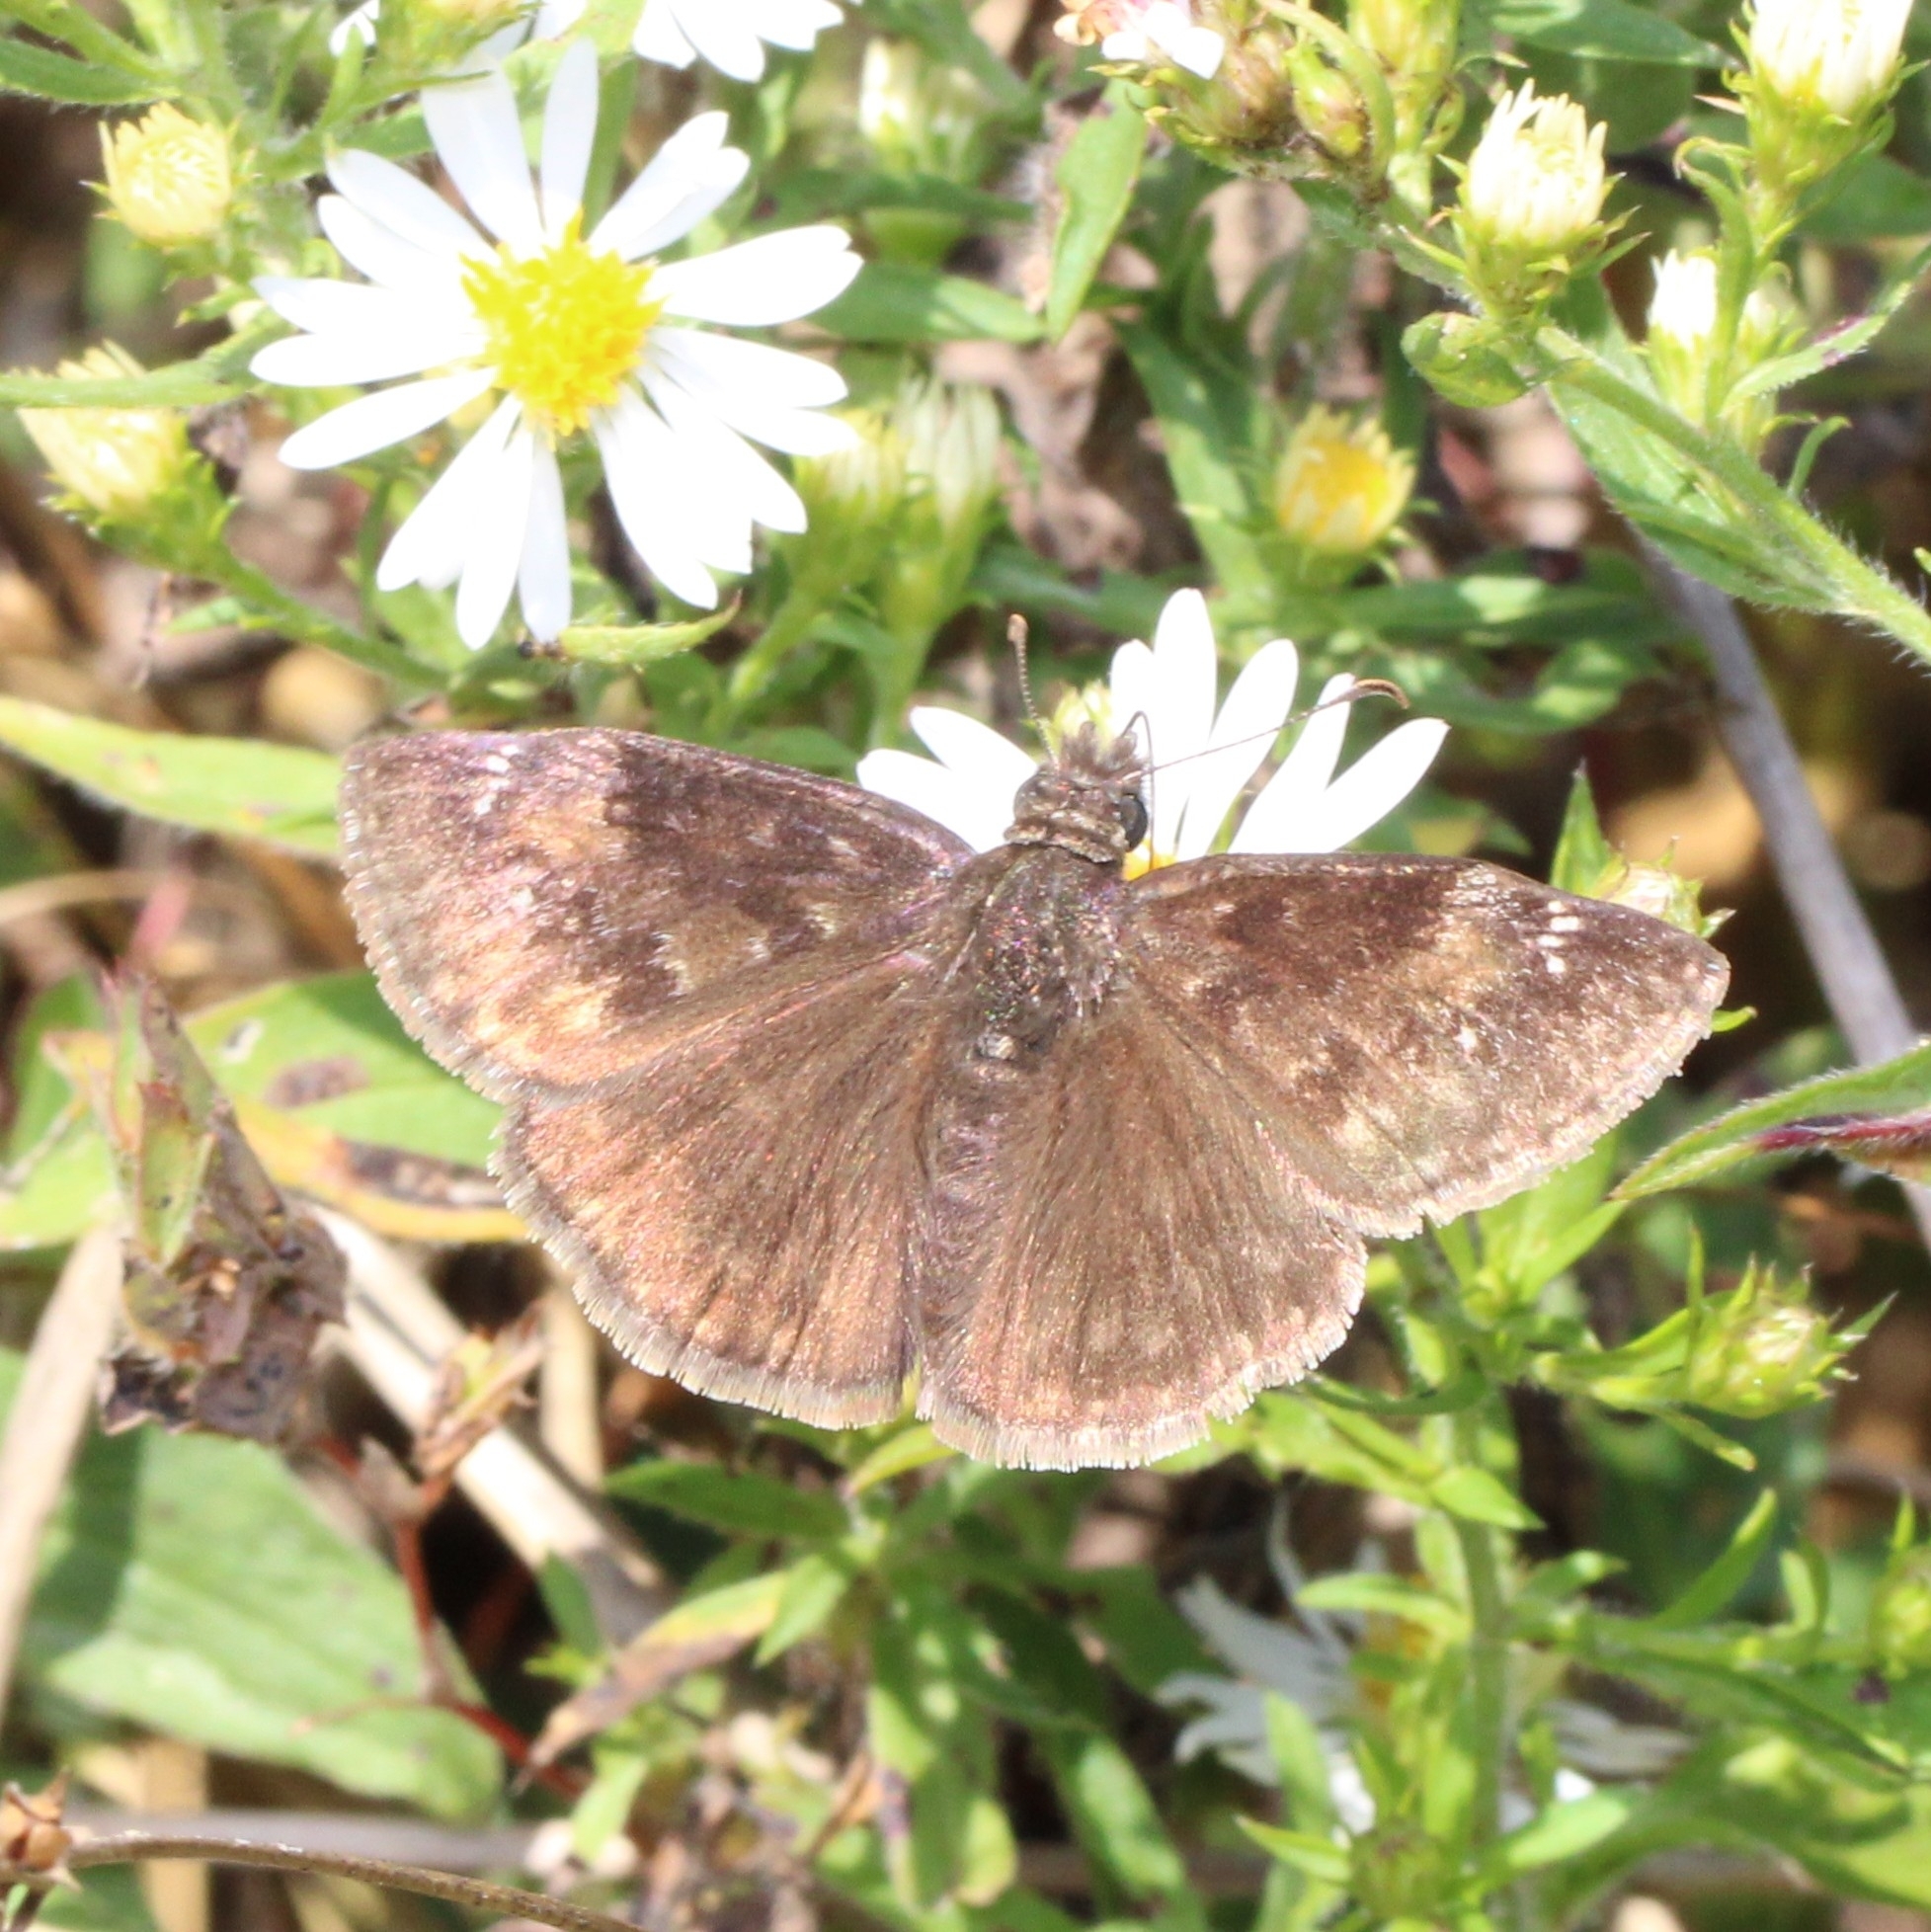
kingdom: Animalia
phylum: Arthropoda
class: Insecta
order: Lepidoptera
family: Hesperiidae
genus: Erynnis
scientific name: Erynnis baptisiae
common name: Wild indigo duskywing
